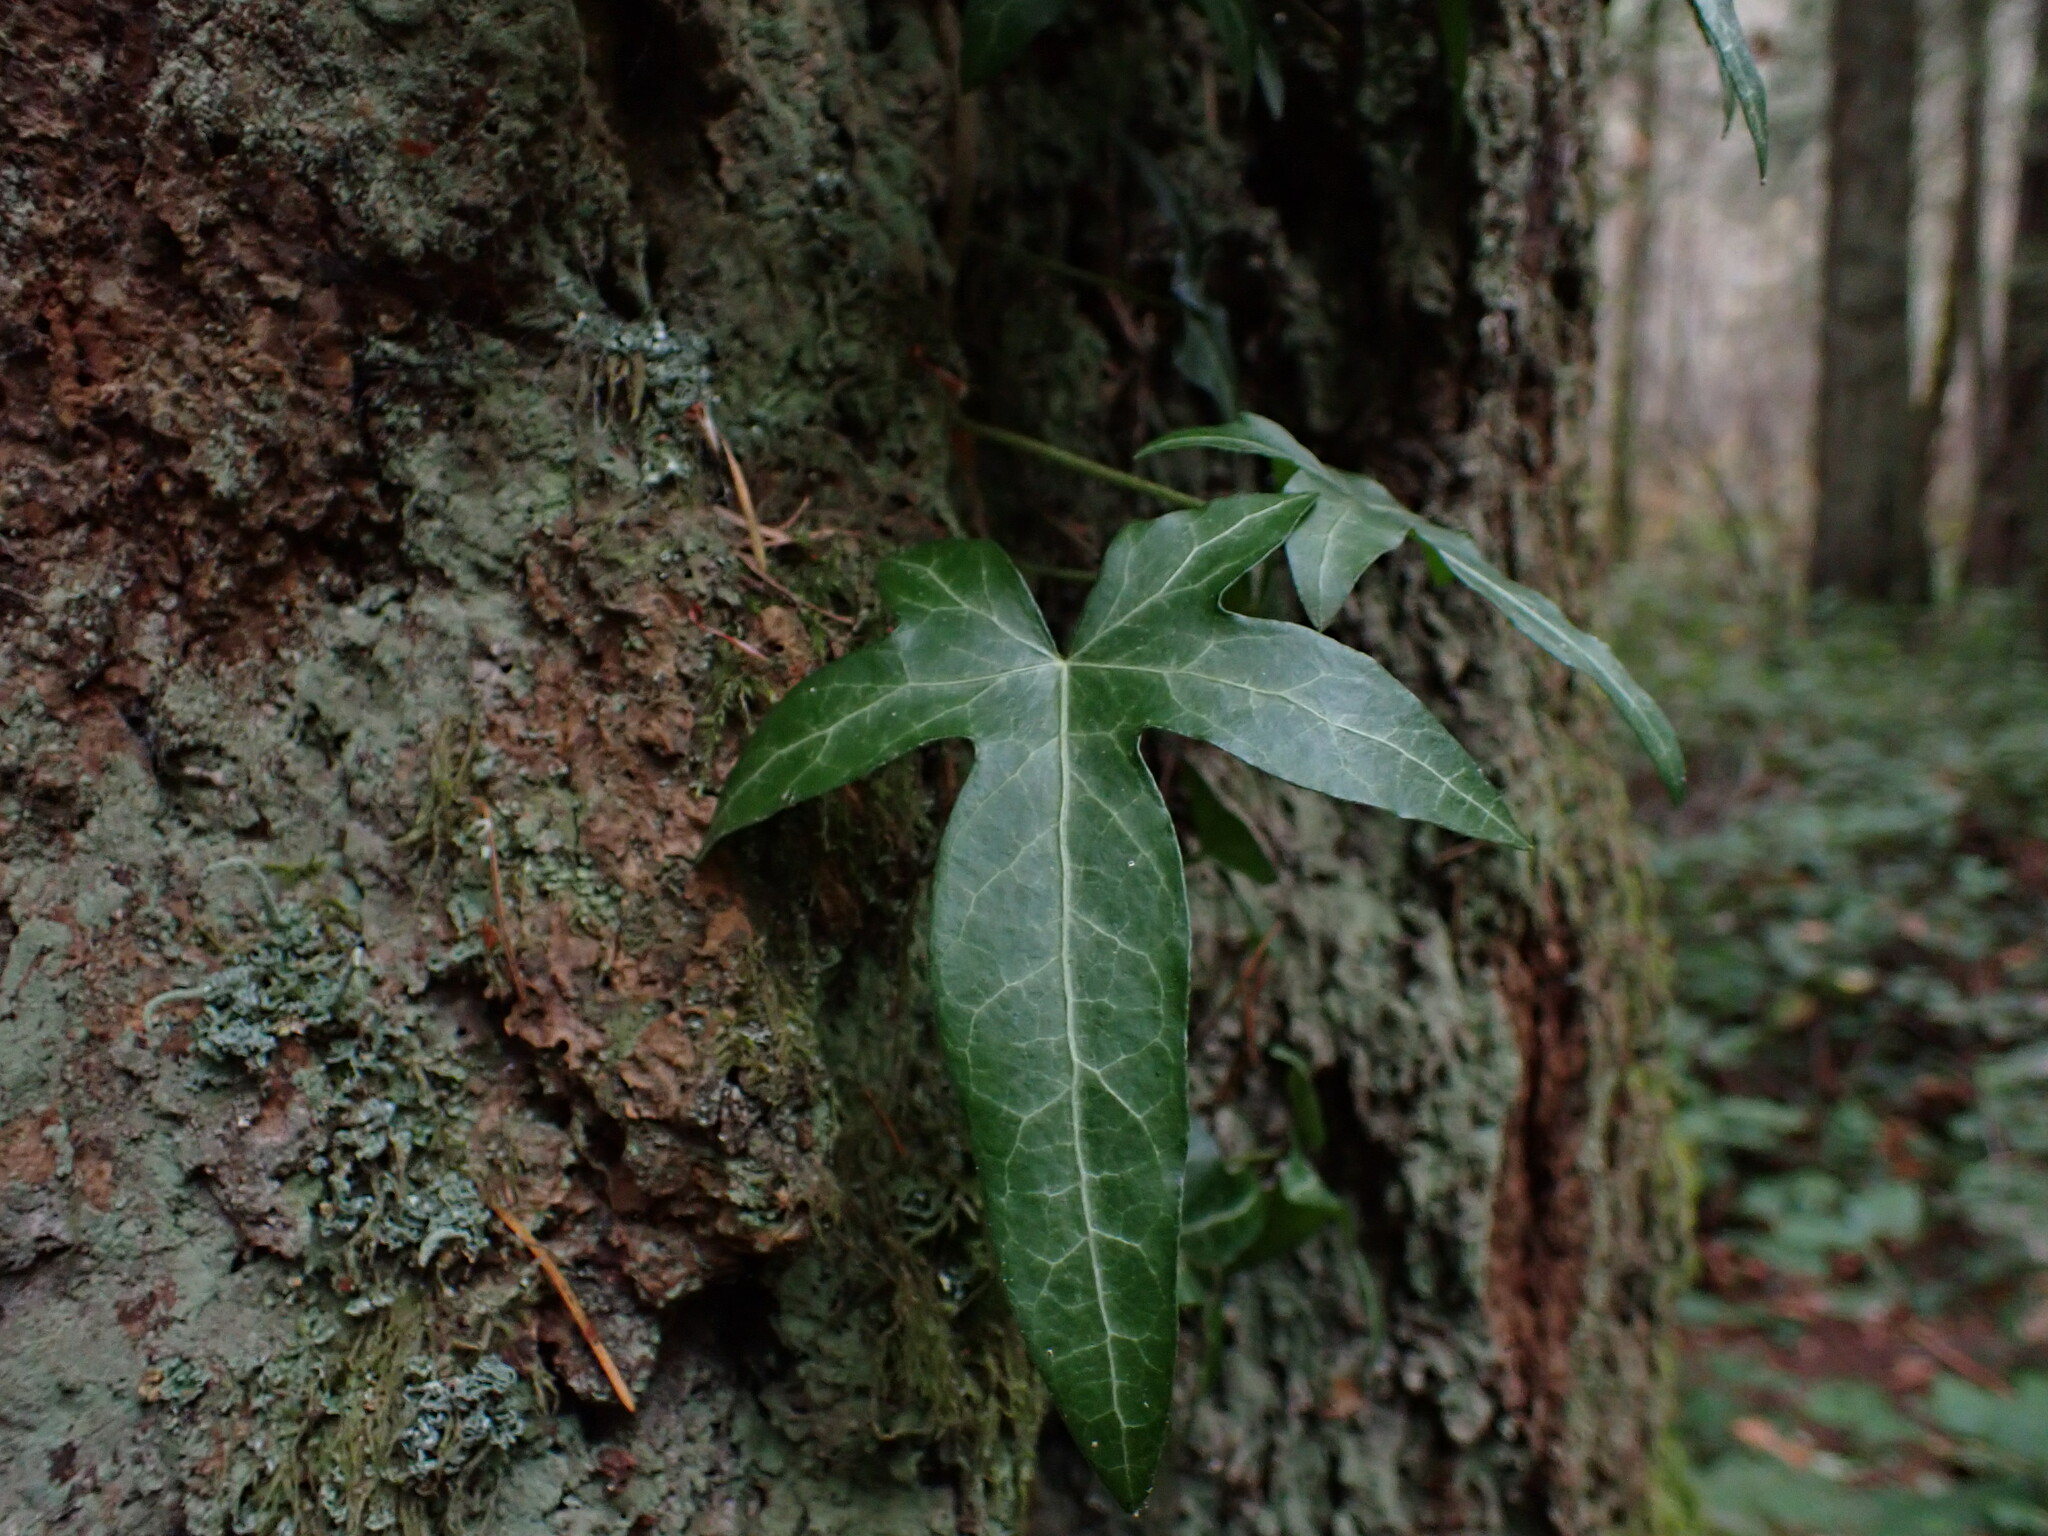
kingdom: Plantae
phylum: Tracheophyta
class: Magnoliopsida
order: Apiales
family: Araliaceae
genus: Hedera
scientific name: Hedera helix
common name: Ivy
